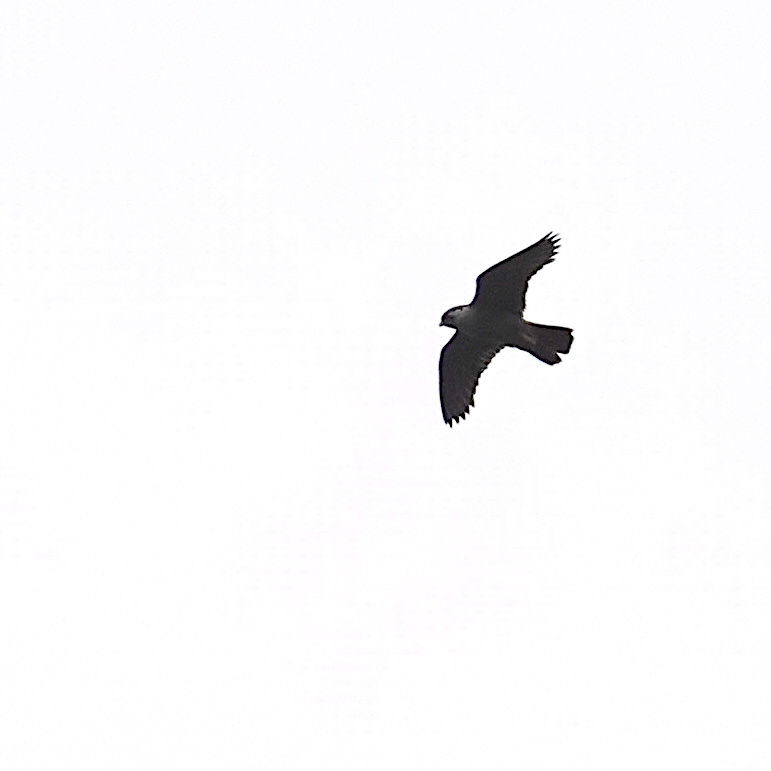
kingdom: Animalia
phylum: Chordata
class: Aves
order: Falconiformes
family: Falconidae
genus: Falco
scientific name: Falco peregrinus
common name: Peregrine falcon
